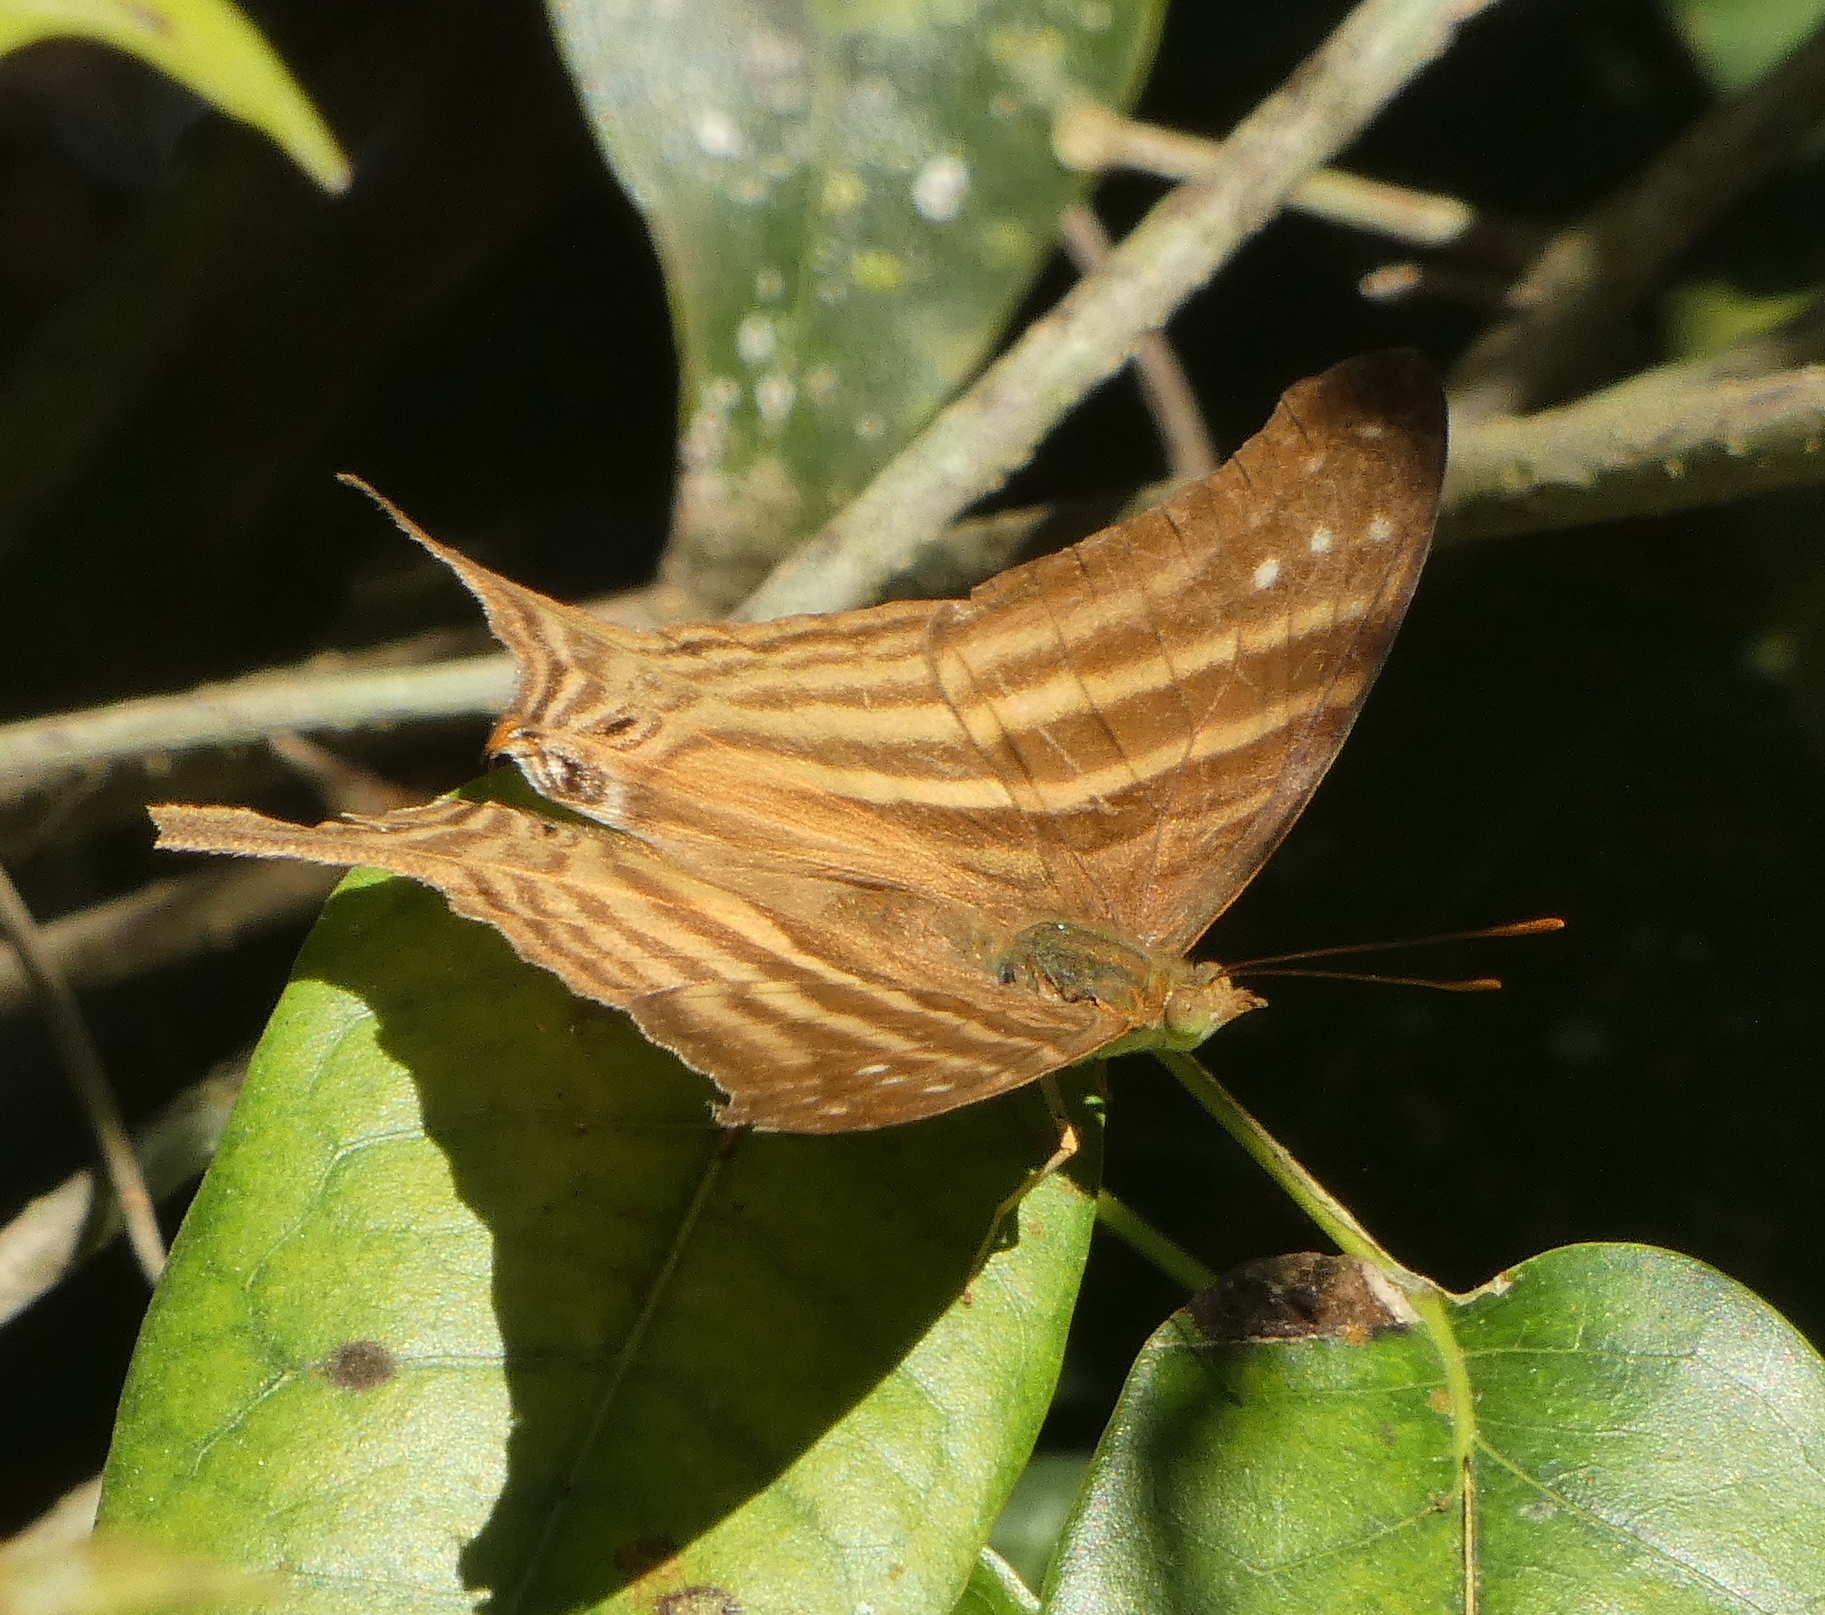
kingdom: Animalia
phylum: Arthropoda
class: Insecta
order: Lepidoptera
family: Nymphalidae
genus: Marpesia
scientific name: Marpesia chiron
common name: Many-banded daggerwing
